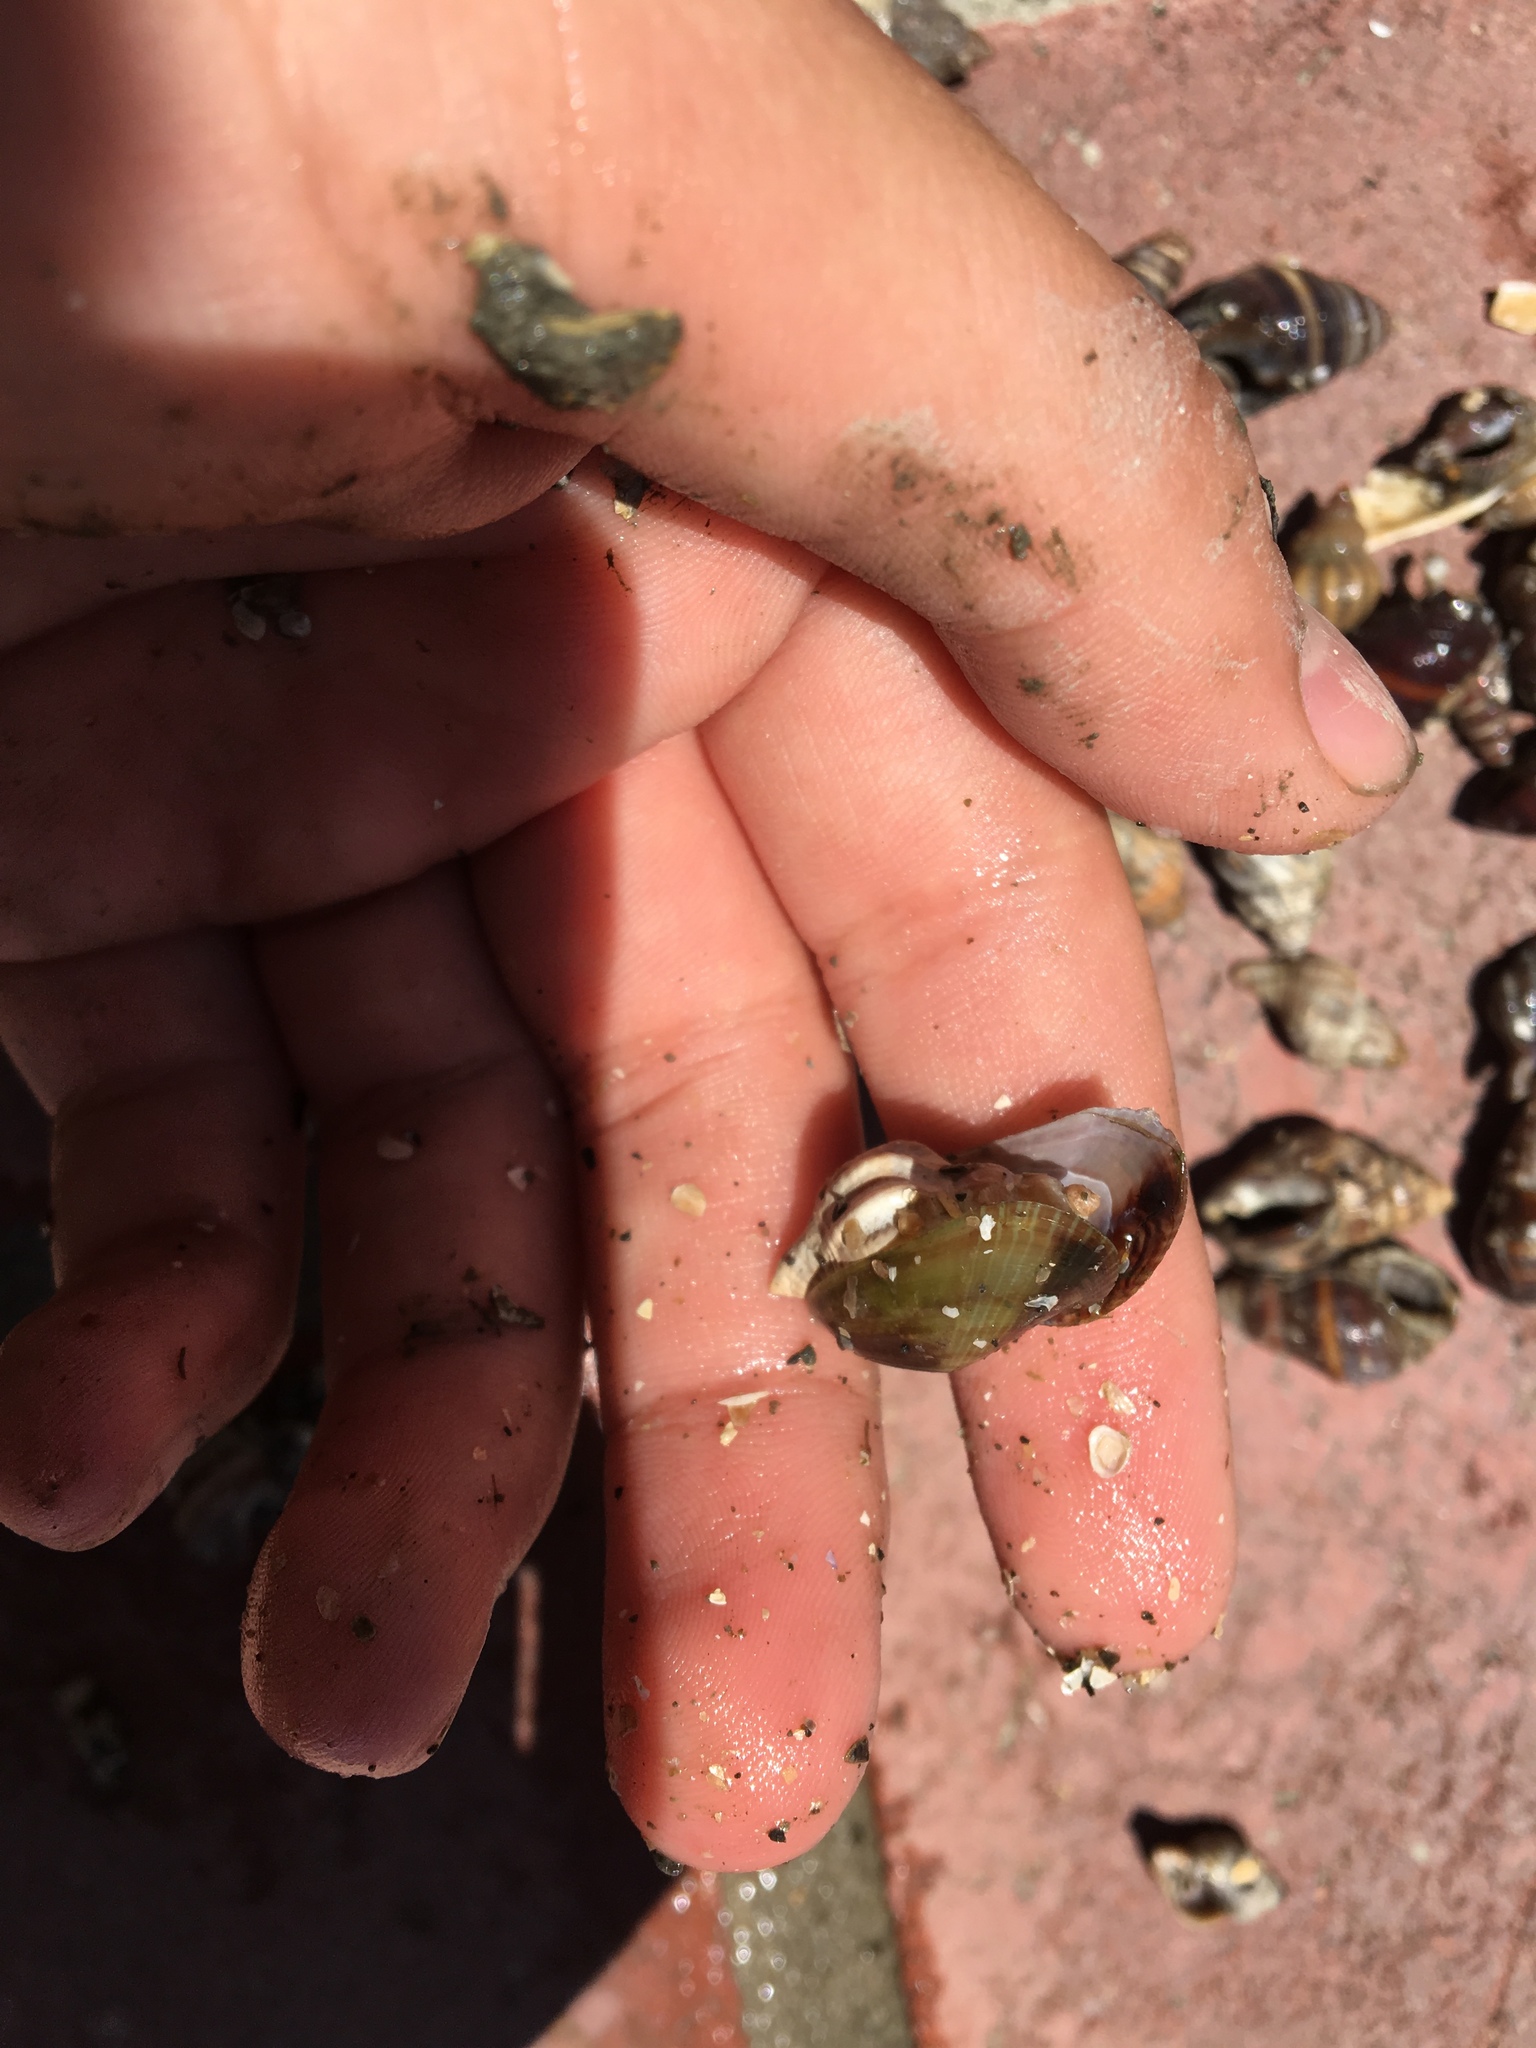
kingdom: Animalia
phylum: Mollusca
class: Bivalvia
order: Mytilida
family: Mytilidae
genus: Arcuatula
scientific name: Arcuatula senhousia
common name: Asian mussel
